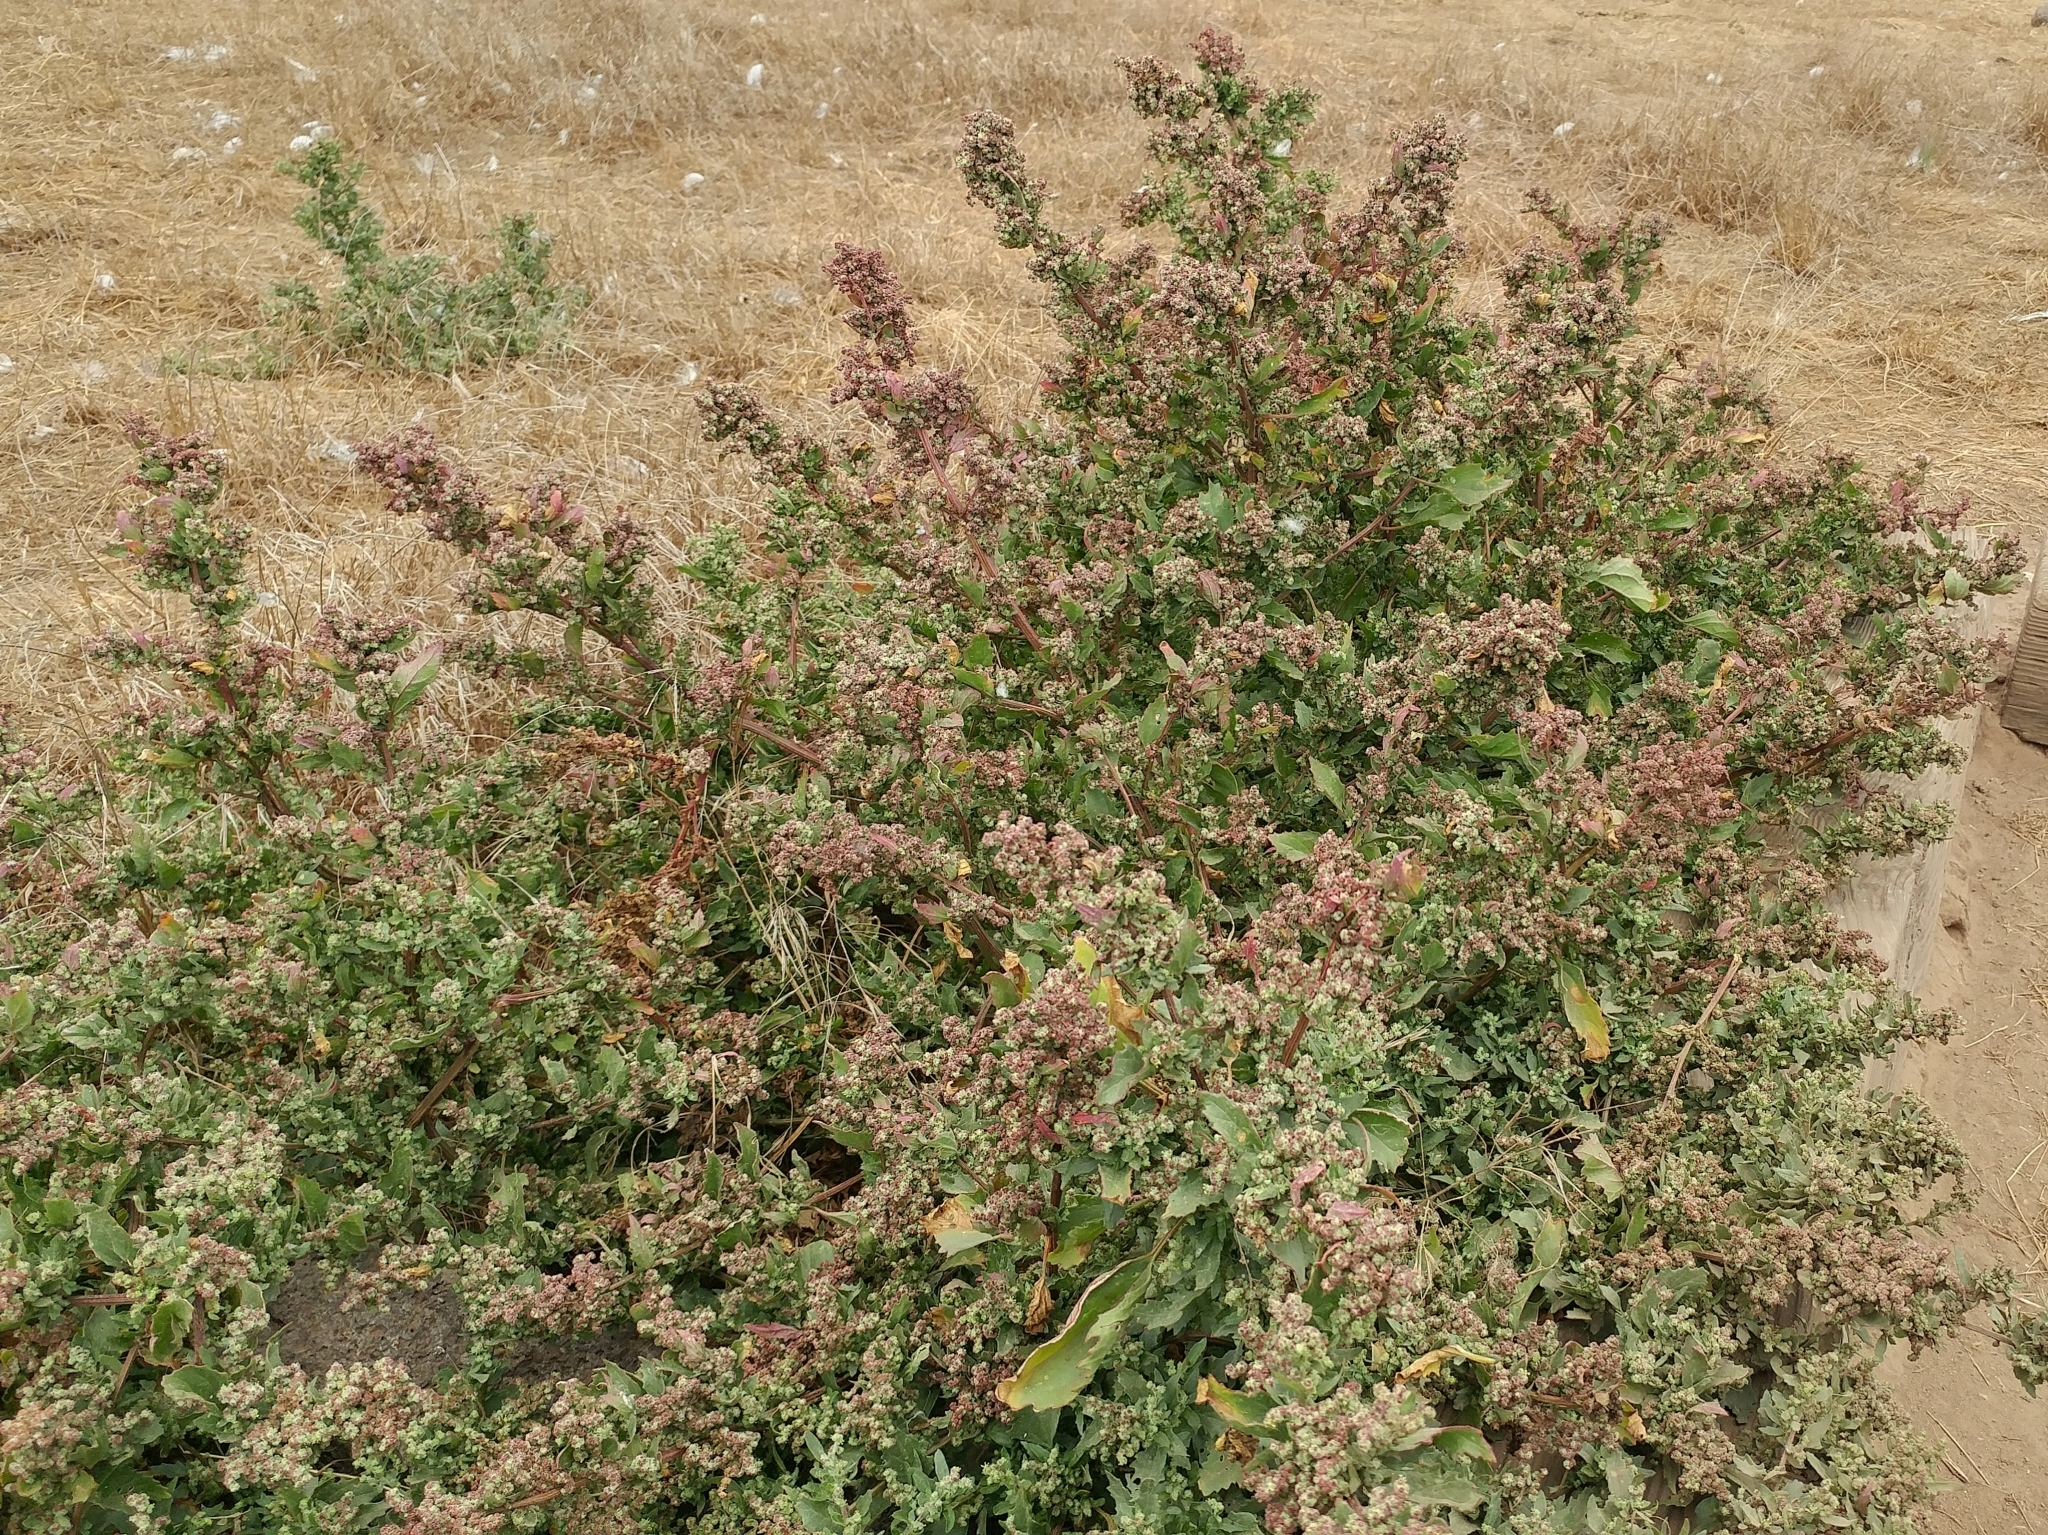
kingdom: Plantae
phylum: Tracheophyta
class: Magnoliopsida
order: Caryophyllales
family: Amaranthaceae
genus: Chenopodiastrum
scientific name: Chenopodiastrum murale
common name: Sowbane
